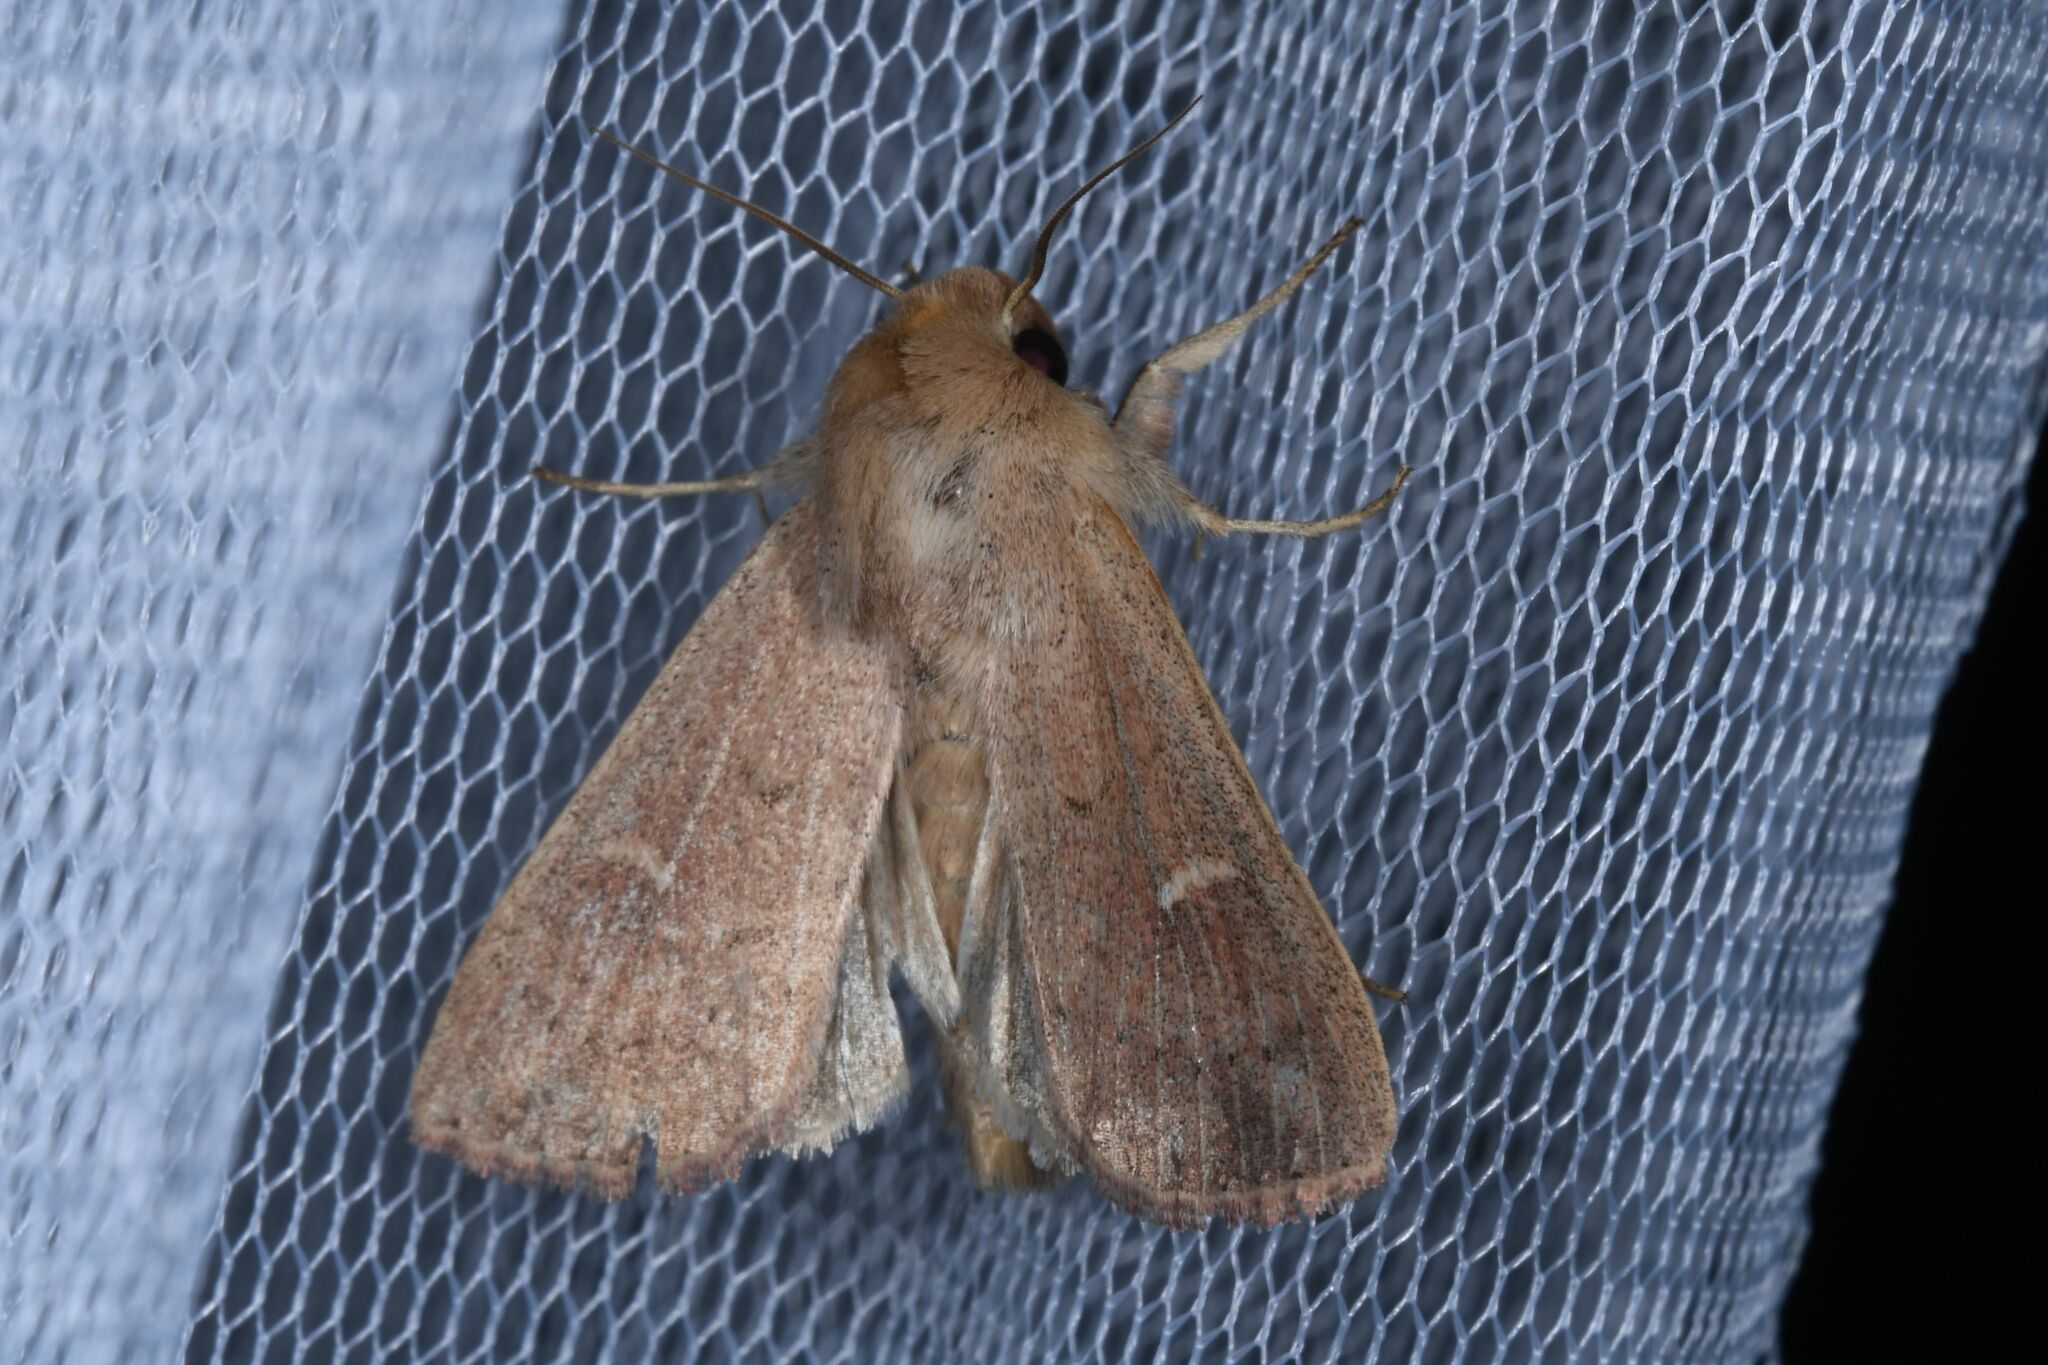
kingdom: Animalia
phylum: Arthropoda
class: Insecta
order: Lepidoptera
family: Noctuidae
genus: Mythimna
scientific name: Mythimna ferrago
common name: Clay
